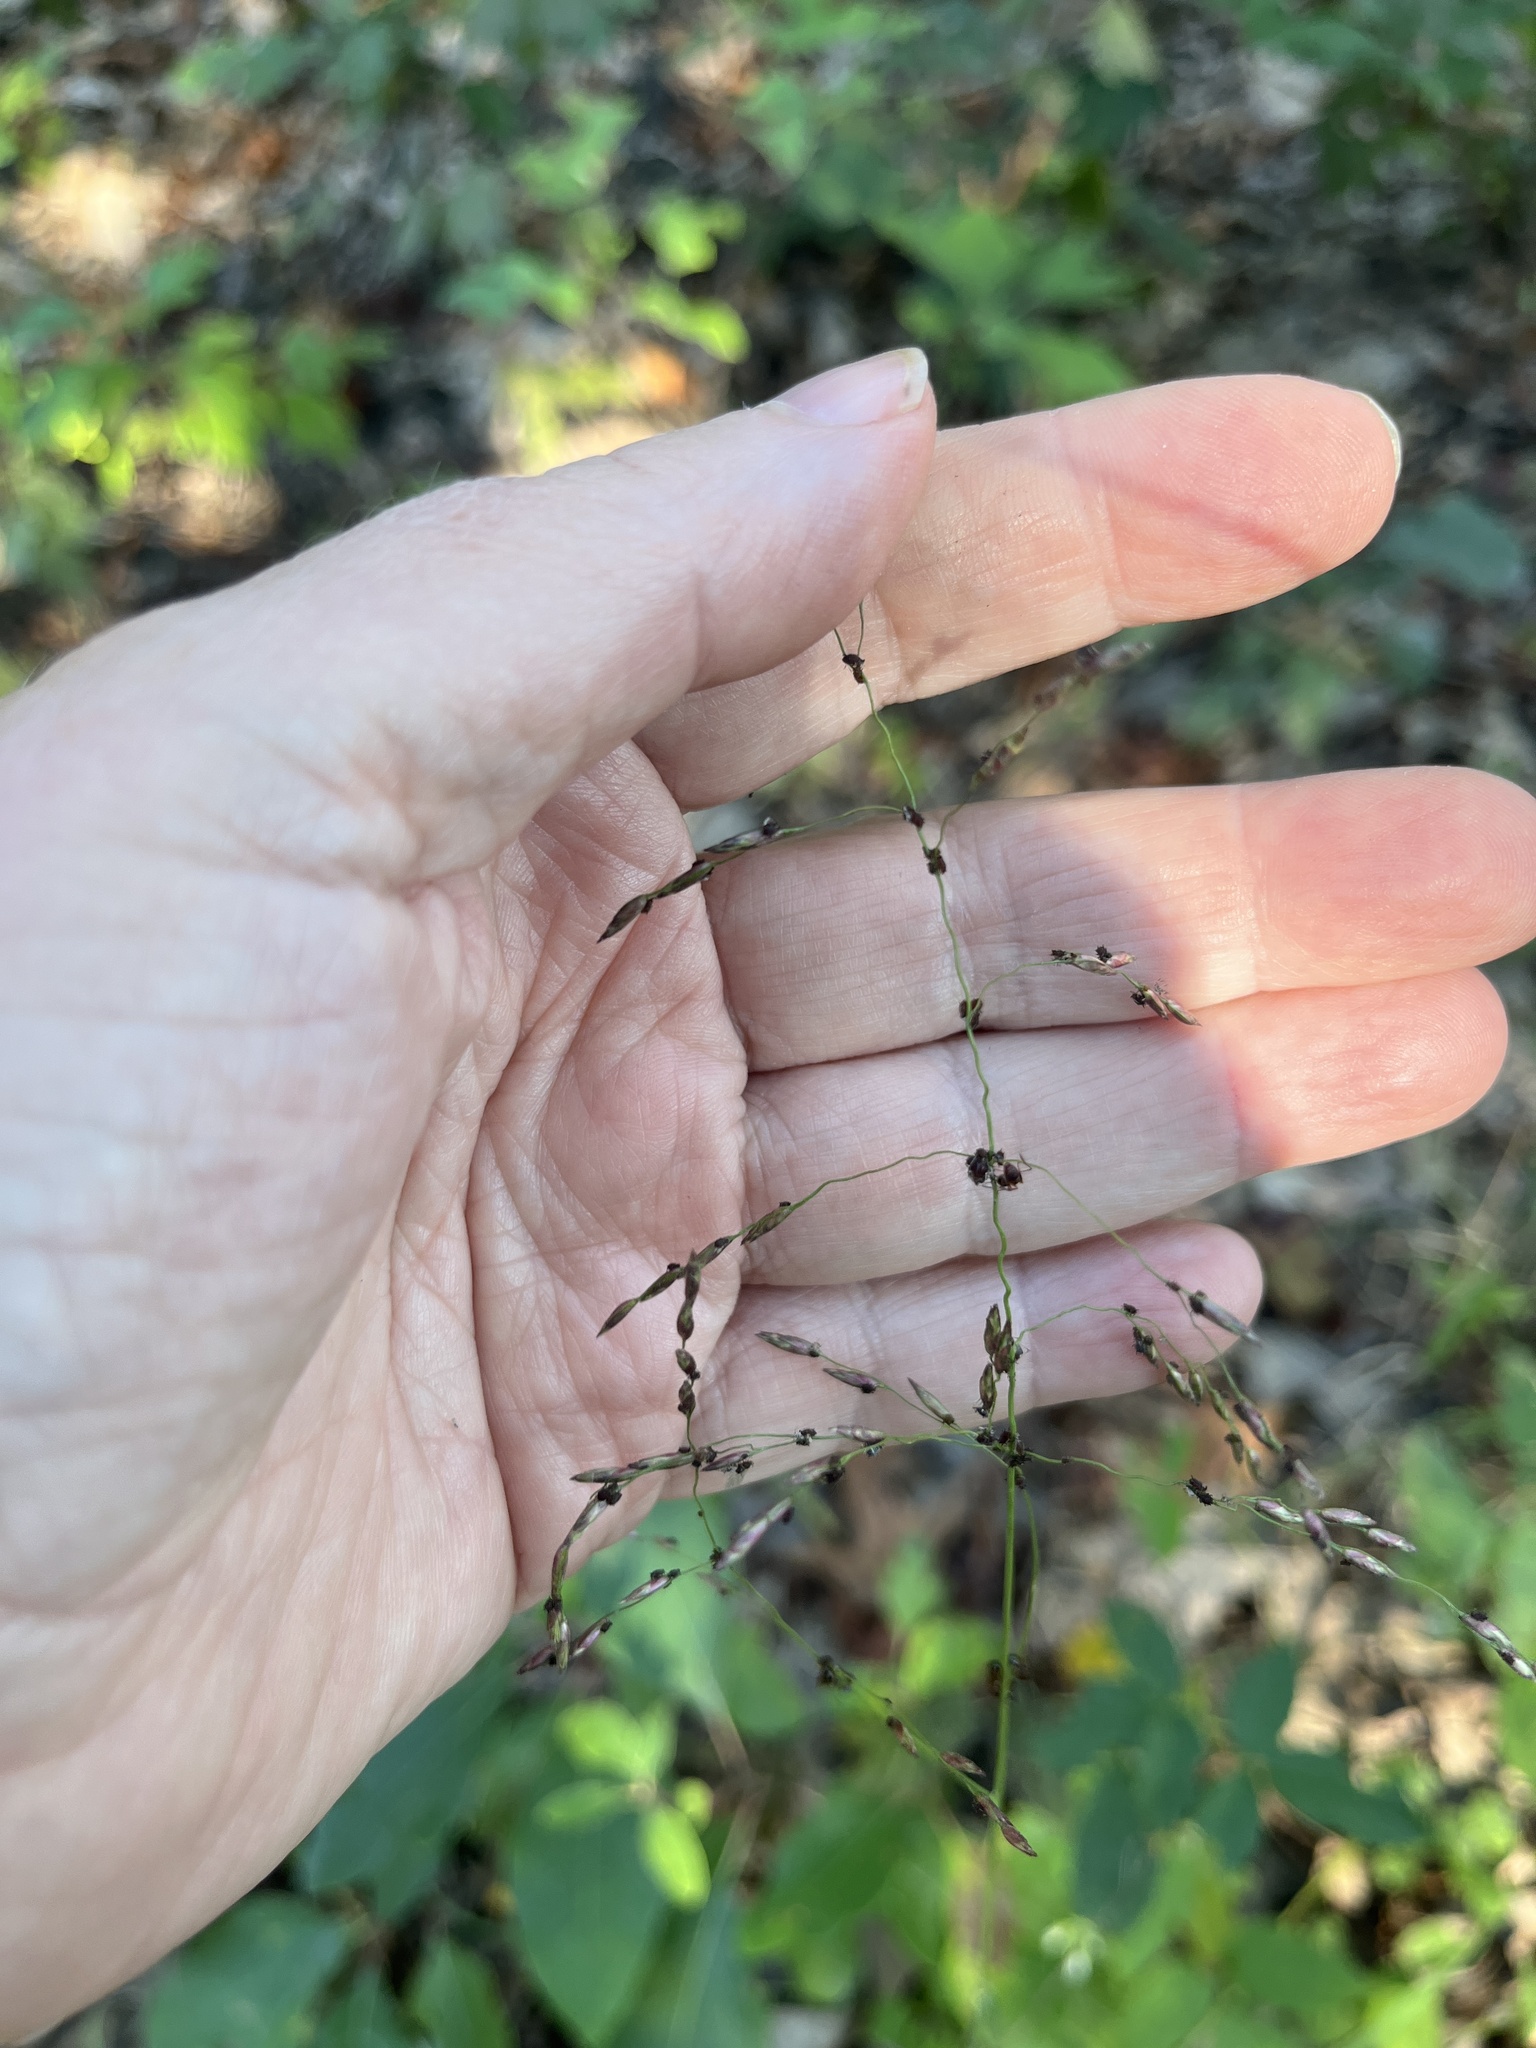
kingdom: Plantae
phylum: Tracheophyta
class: Liliopsida
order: Poales
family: Poaceae
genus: Tridens
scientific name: Tridens flavus
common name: Purpletop
